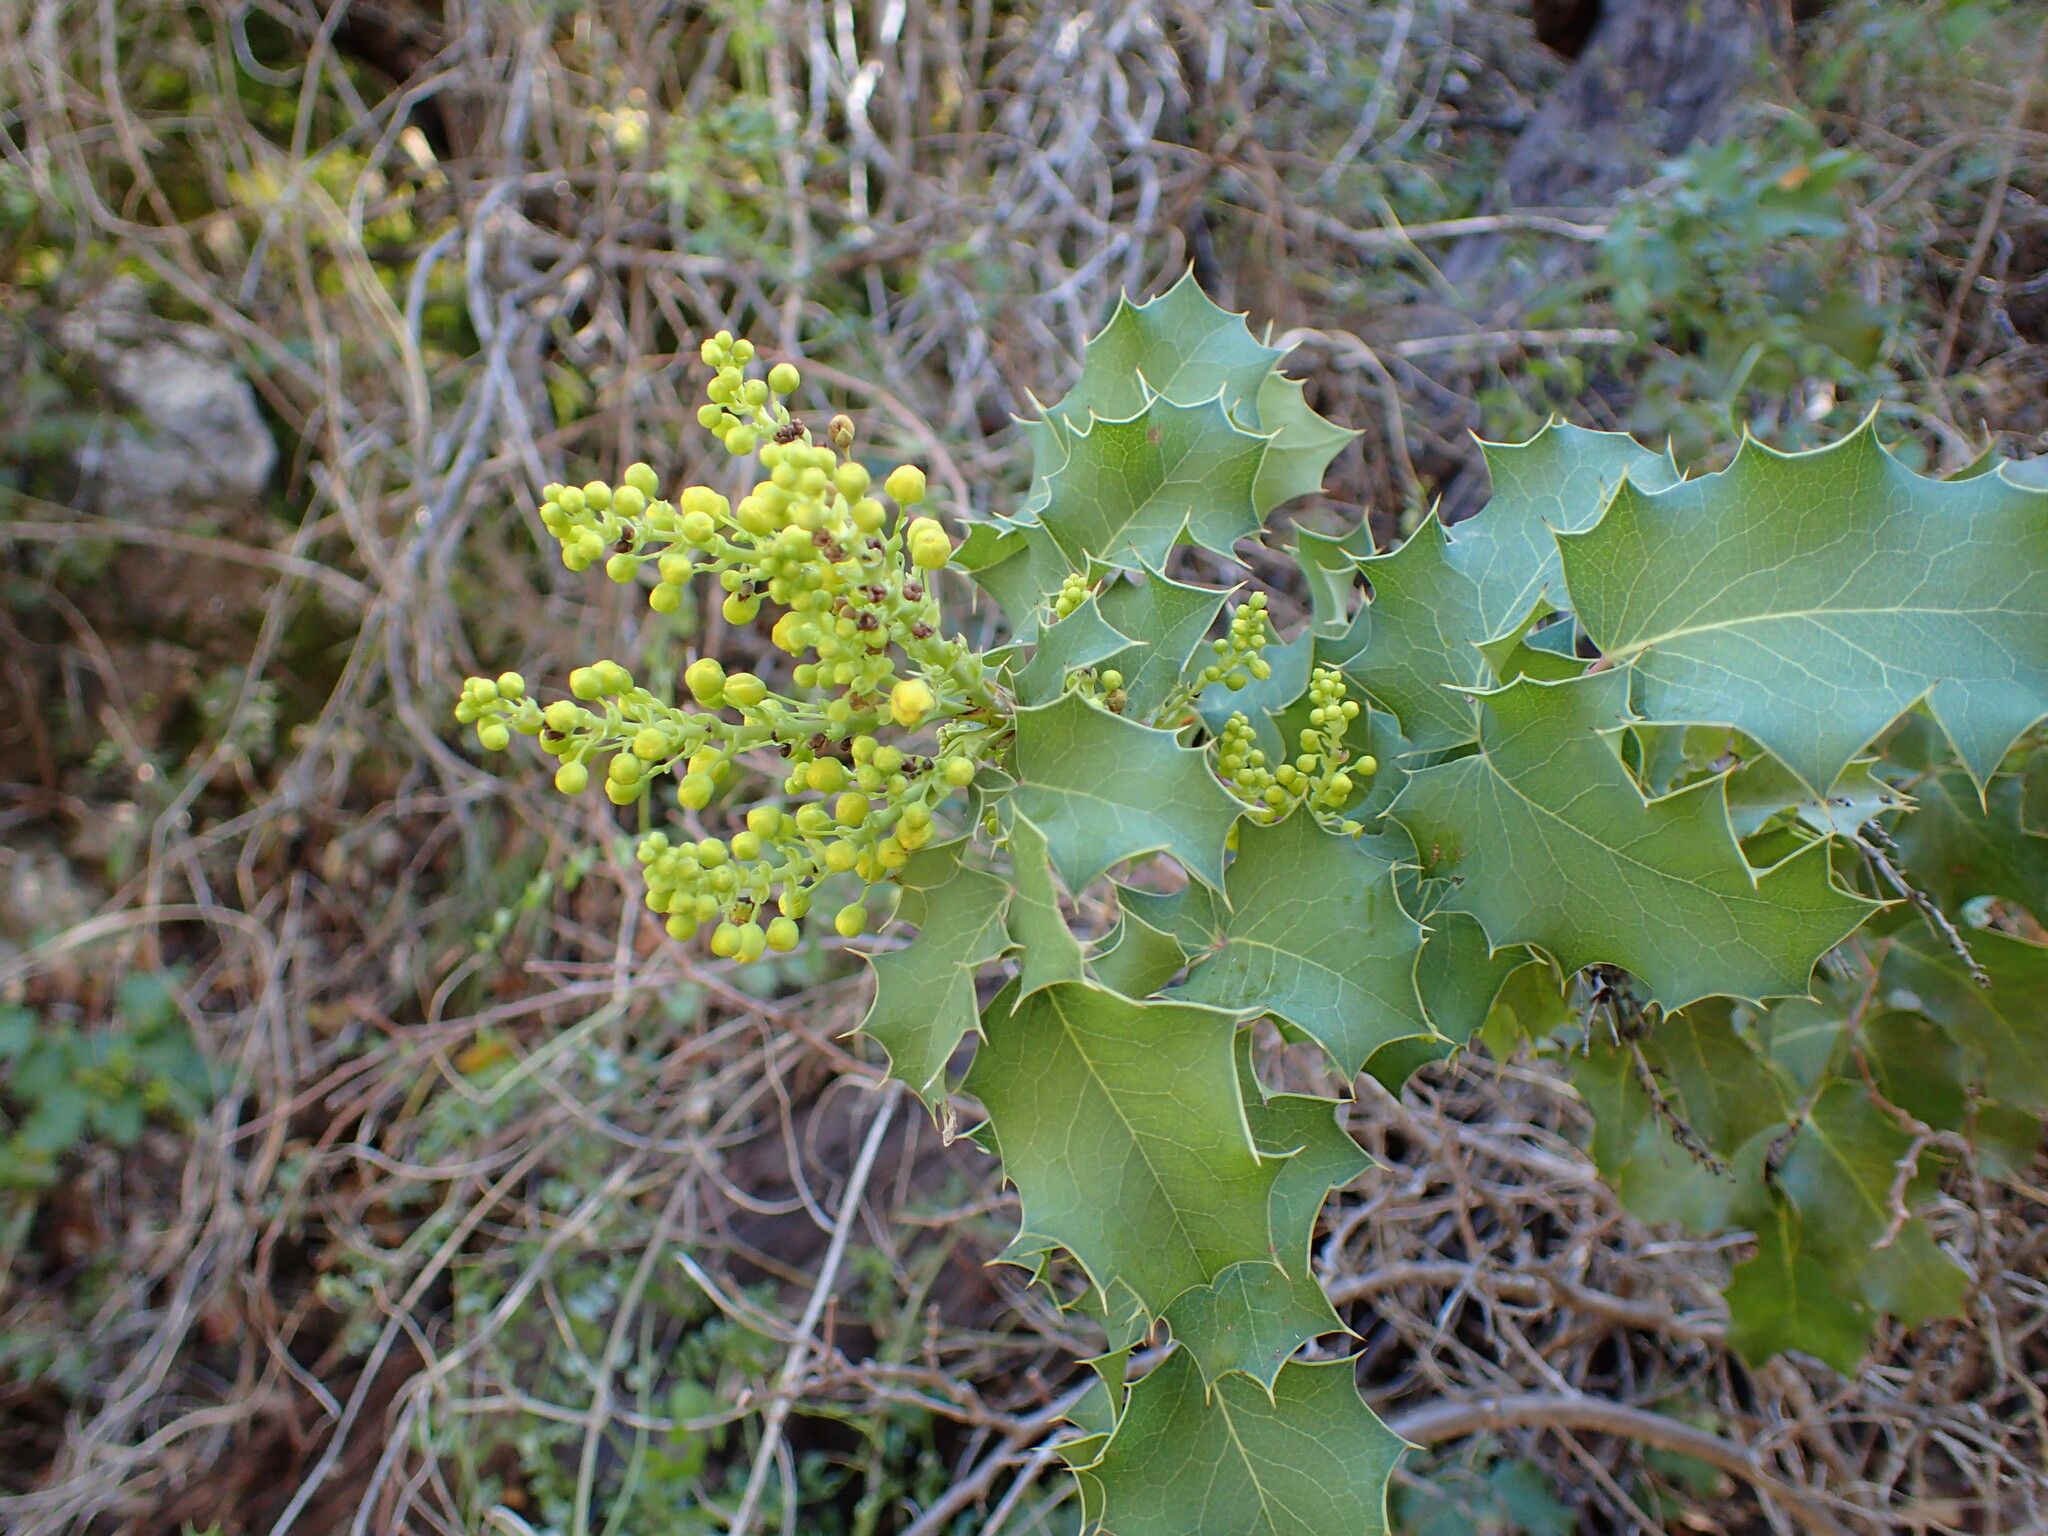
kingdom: Plantae
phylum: Tracheophyta
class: Magnoliopsida
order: Ranunculales
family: Berberidaceae
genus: Mahonia
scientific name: Mahonia dictyota
